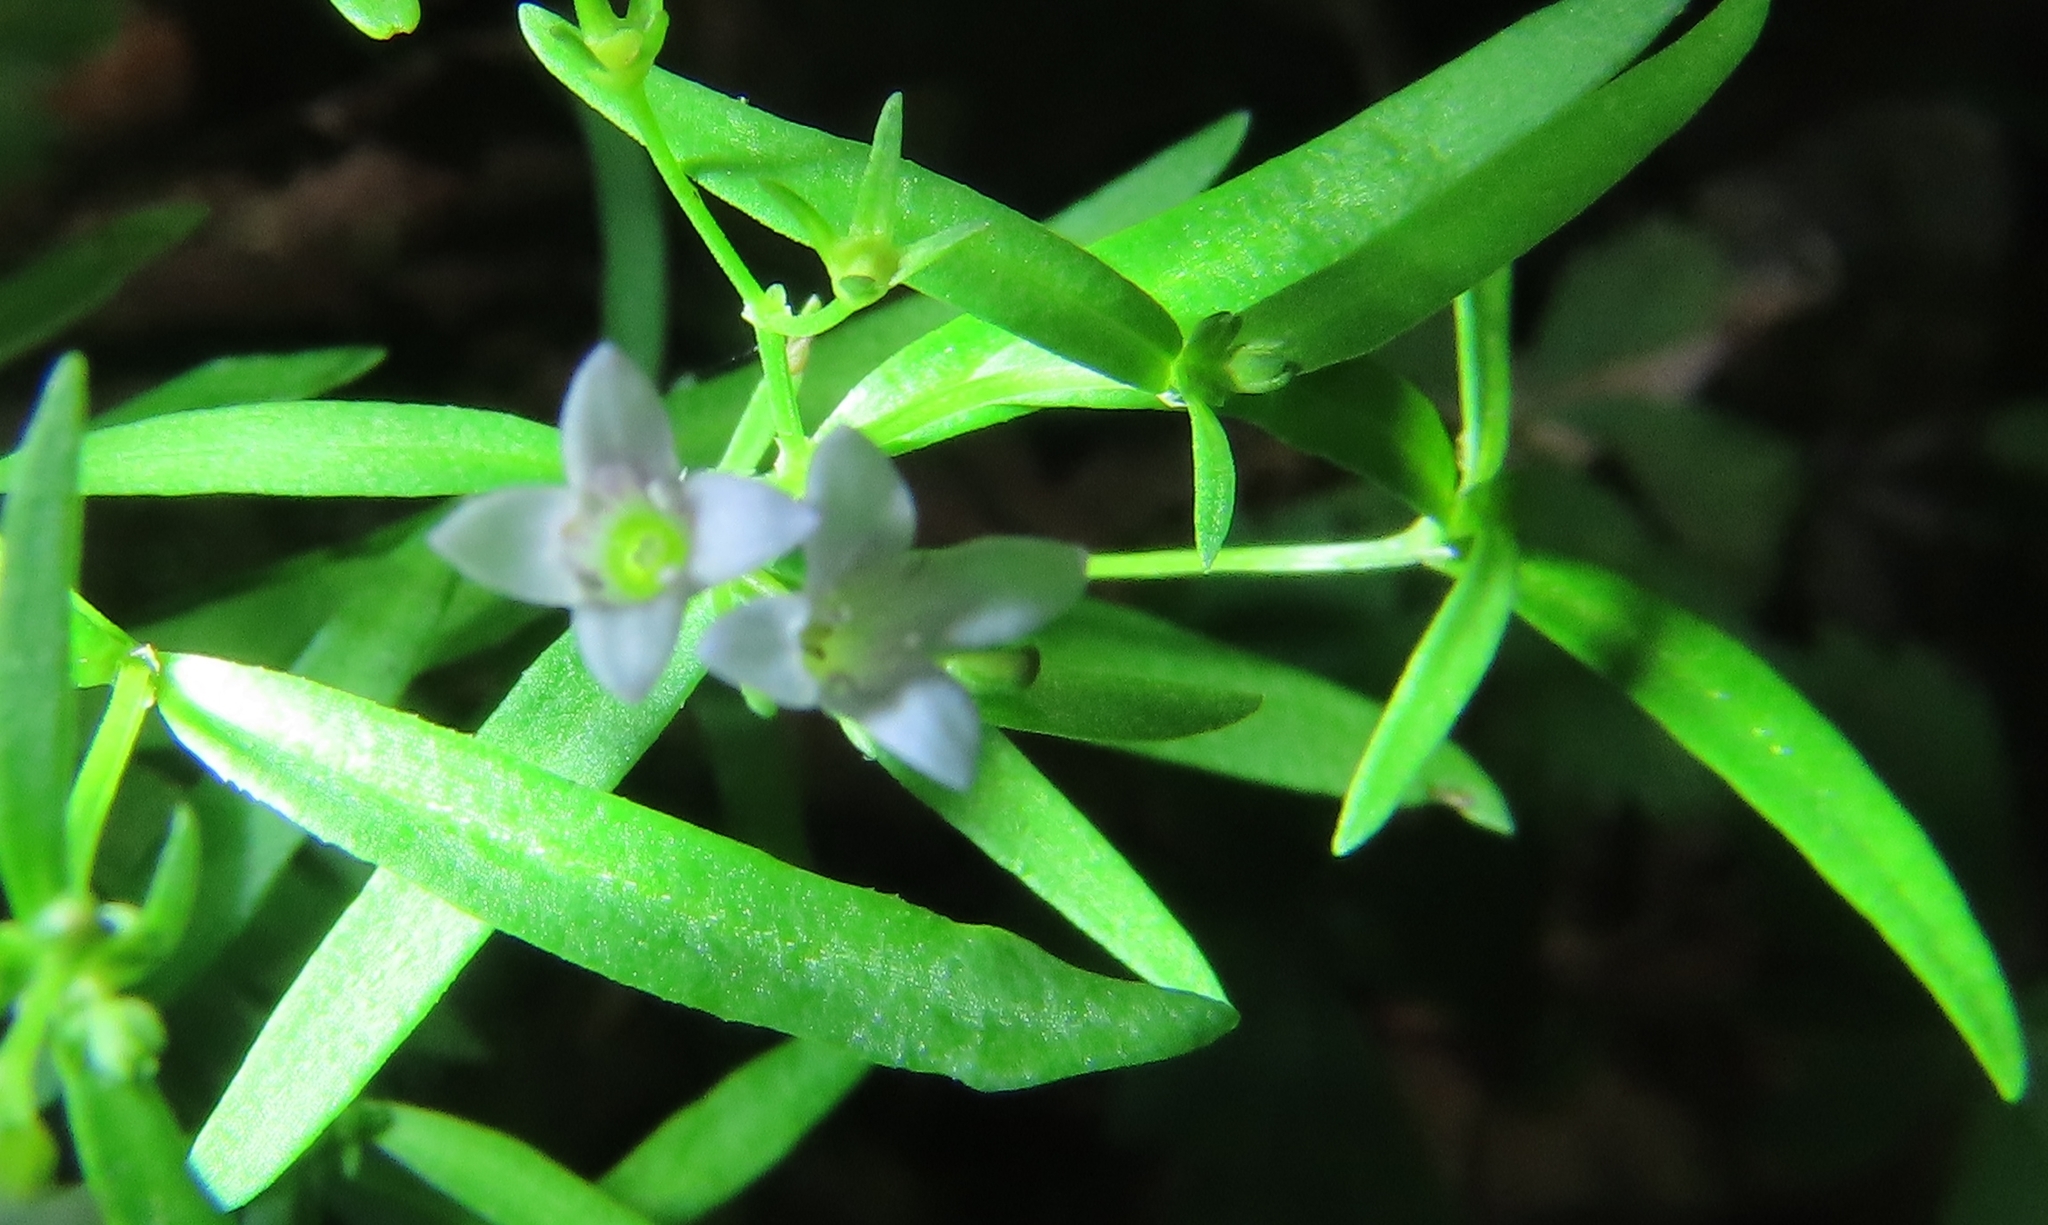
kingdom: Plantae
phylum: Tracheophyta
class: Magnoliopsida
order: Gentianales
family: Rubiaceae
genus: Houstonia
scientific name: Houstonia longifolia
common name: Long-leaved bluets
